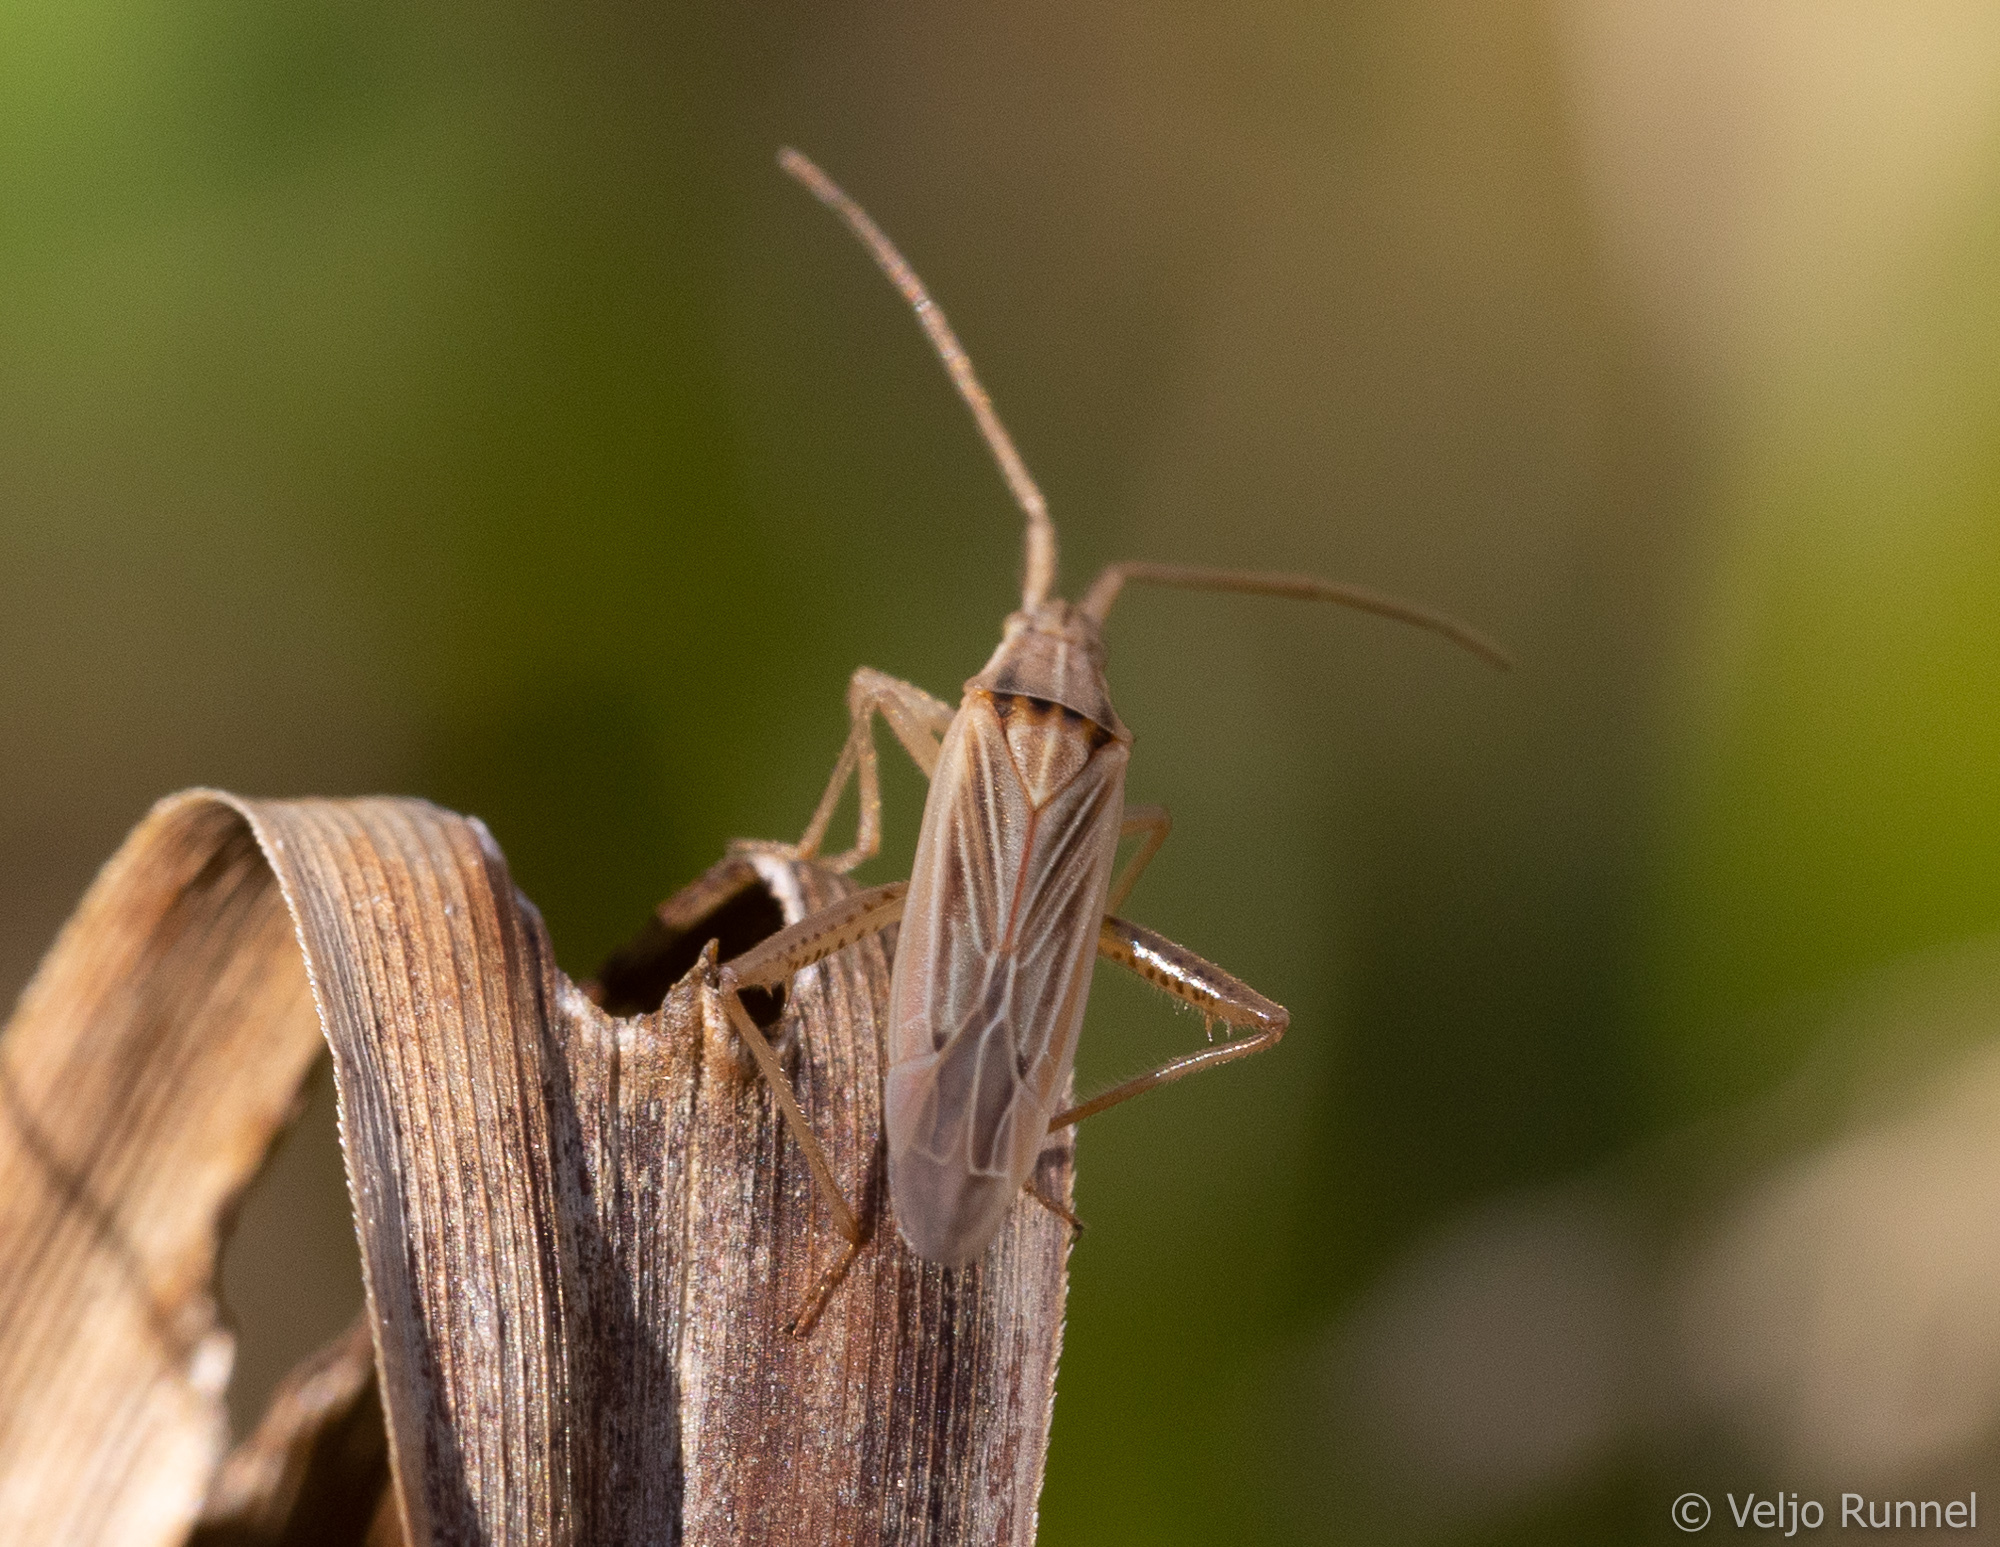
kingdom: Animalia
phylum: Arthropoda
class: Insecta
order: Hemiptera
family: Miridae
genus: Stenodema
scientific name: Stenodema calcarata
